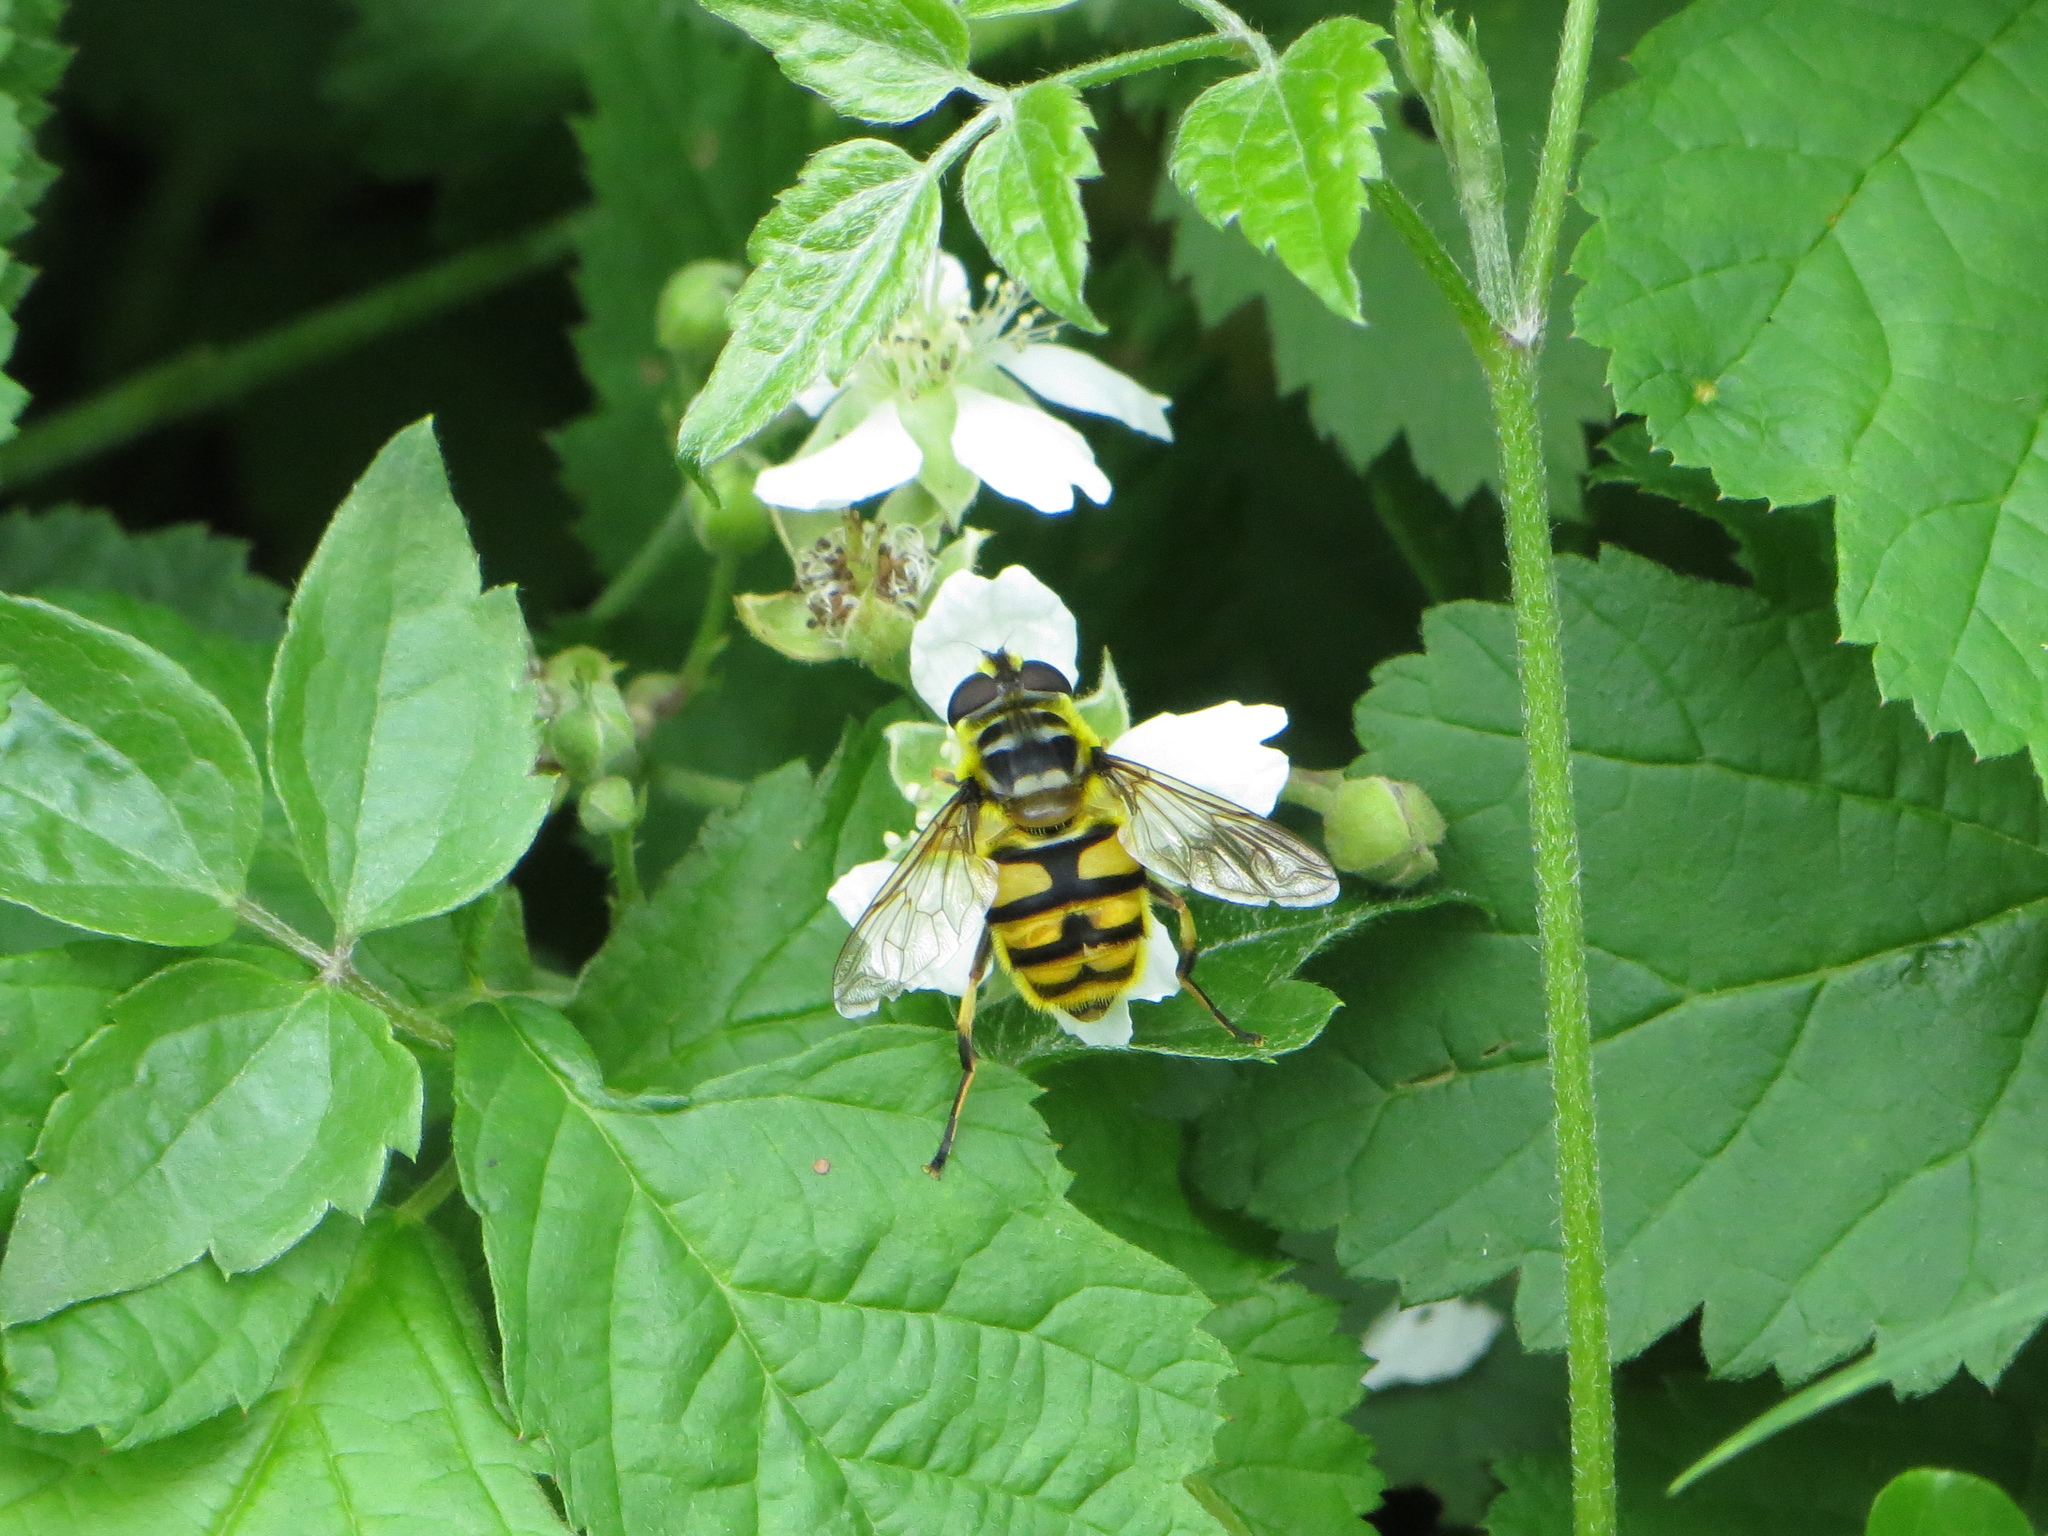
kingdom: Animalia
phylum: Arthropoda
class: Insecta
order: Diptera
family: Syrphidae
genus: Myathropa
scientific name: Myathropa florea
